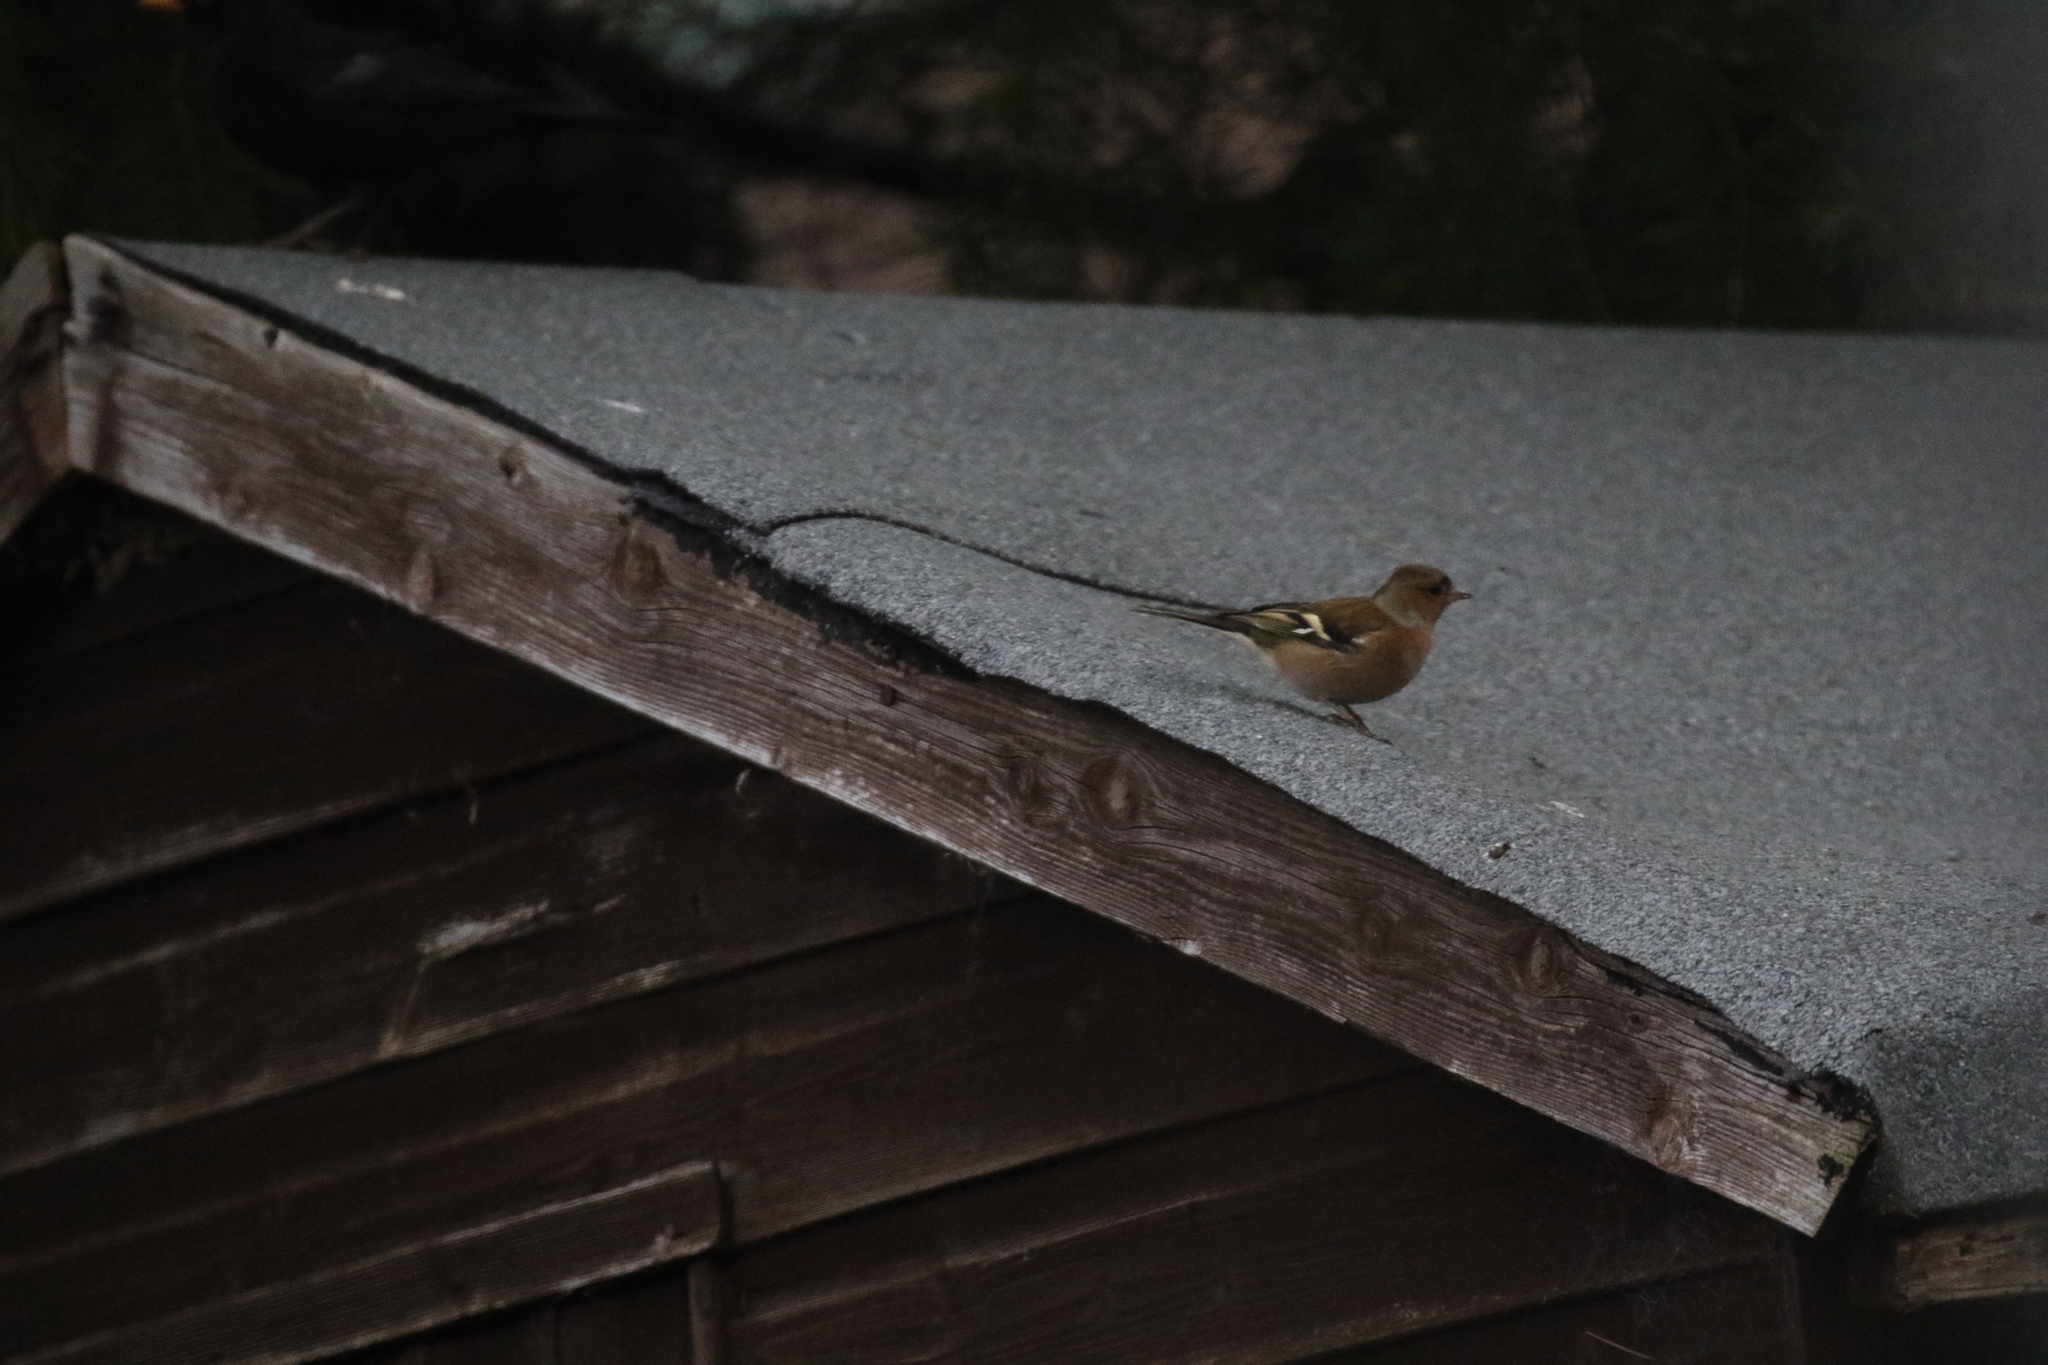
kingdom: Animalia
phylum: Chordata
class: Aves
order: Passeriformes
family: Fringillidae
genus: Fringilla
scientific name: Fringilla coelebs
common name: Common chaffinch
